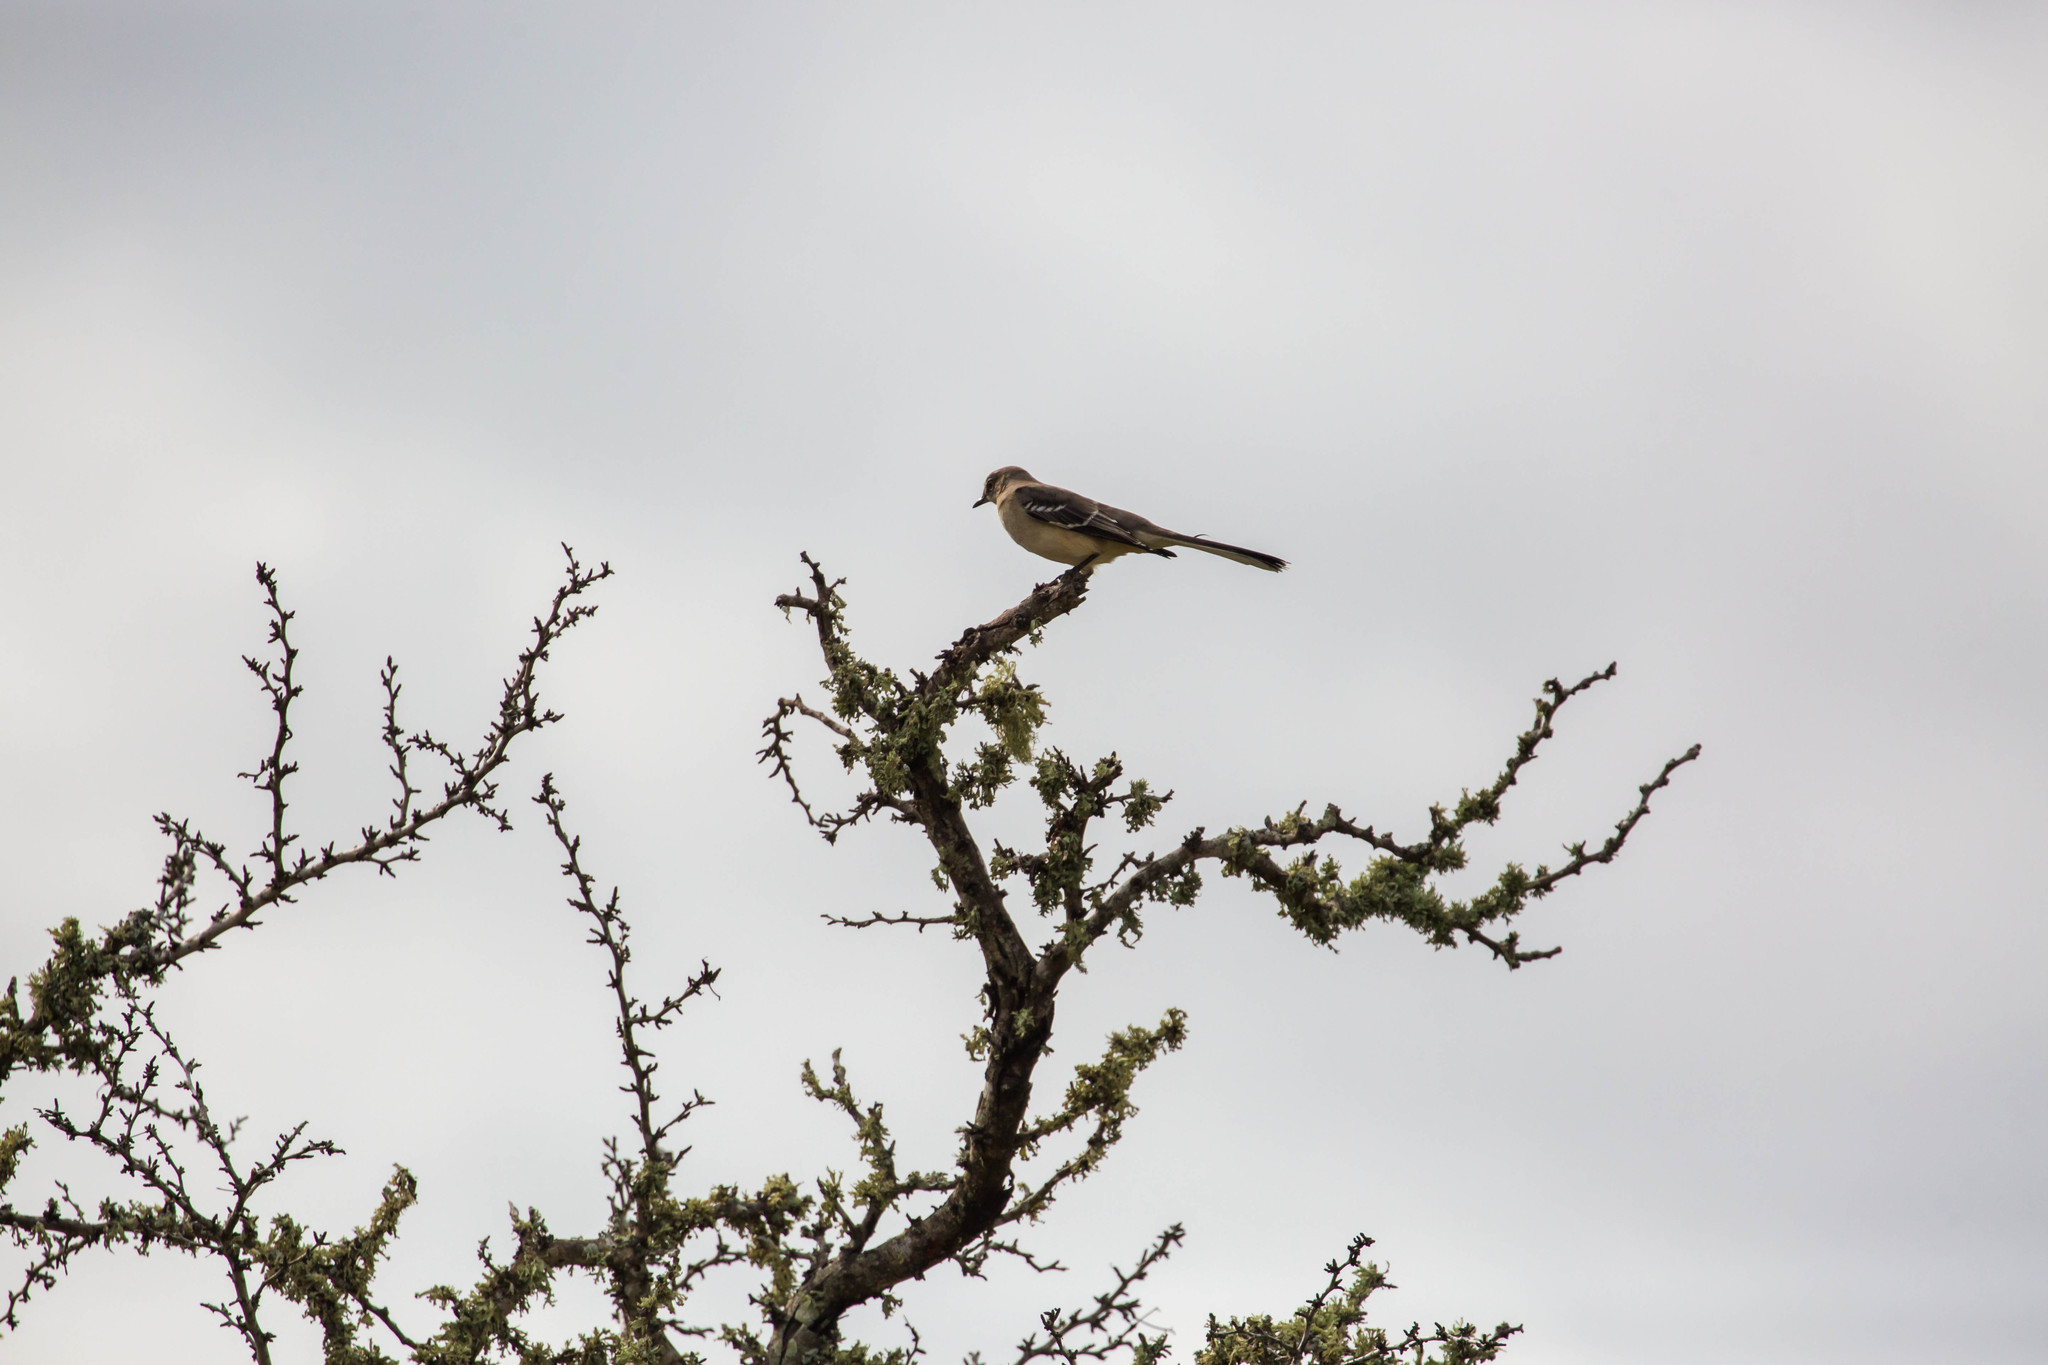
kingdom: Animalia
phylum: Chordata
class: Aves
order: Passeriformes
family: Mimidae
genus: Mimus
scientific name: Mimus polyglottos
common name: Northern mockingbird
